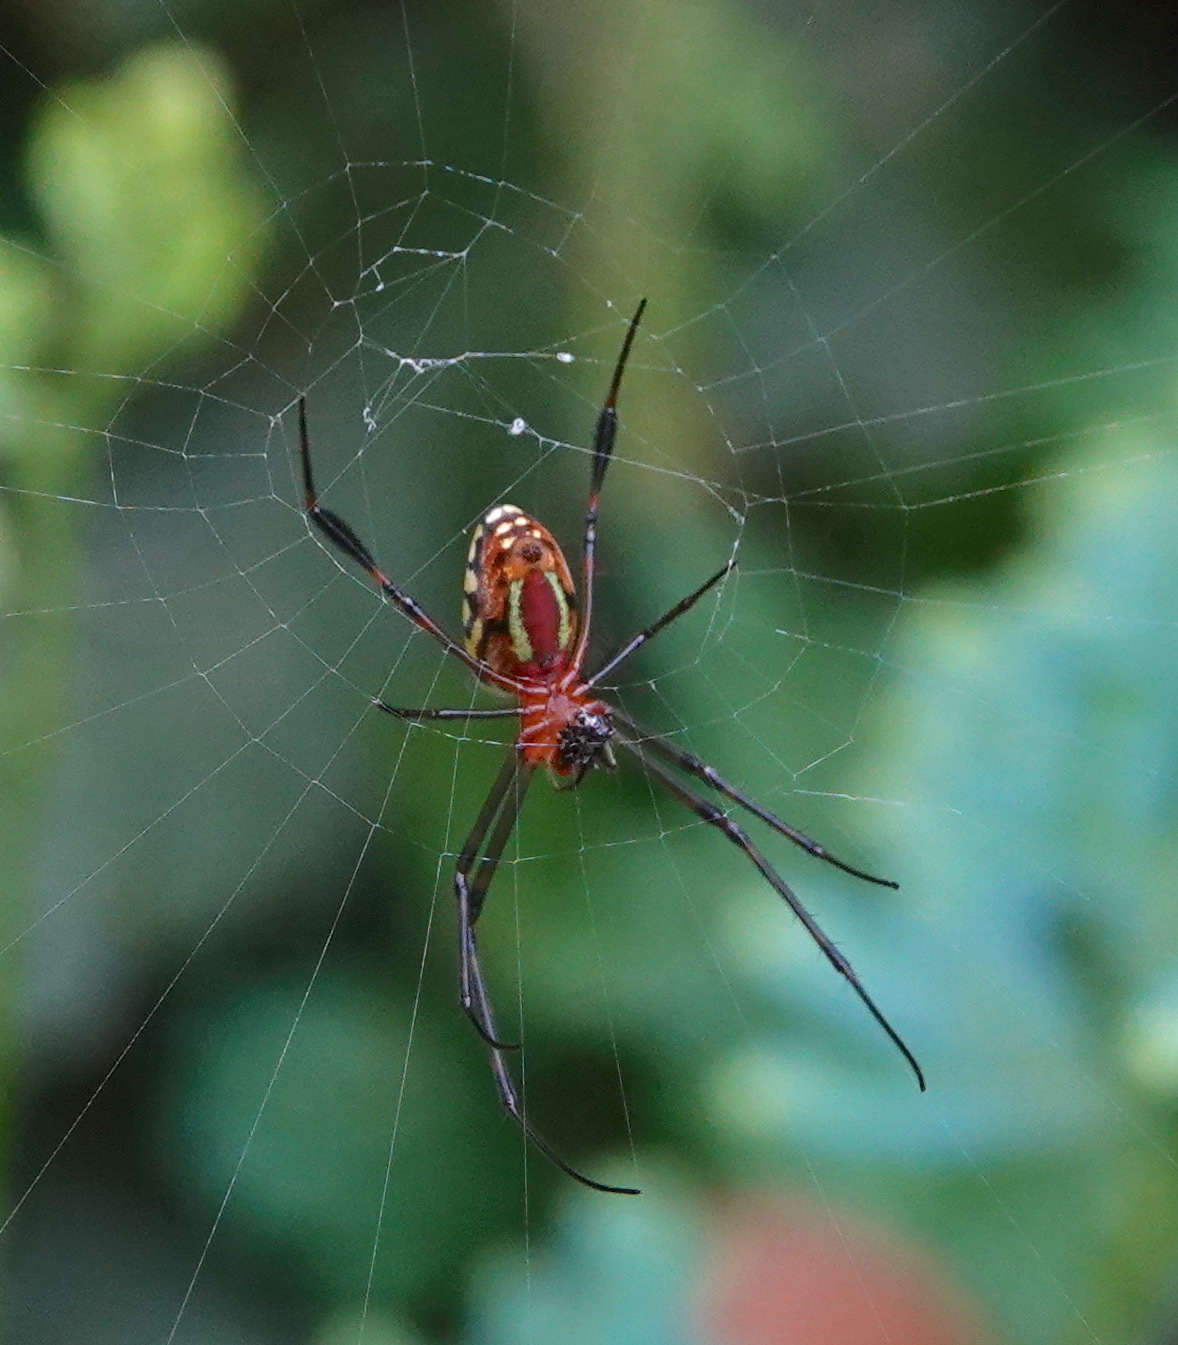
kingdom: Animalia
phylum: Arthropoda
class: Arachnida
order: Araneae
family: Tetragnathidae
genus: Leucauge
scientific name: Leucauge tessellata
